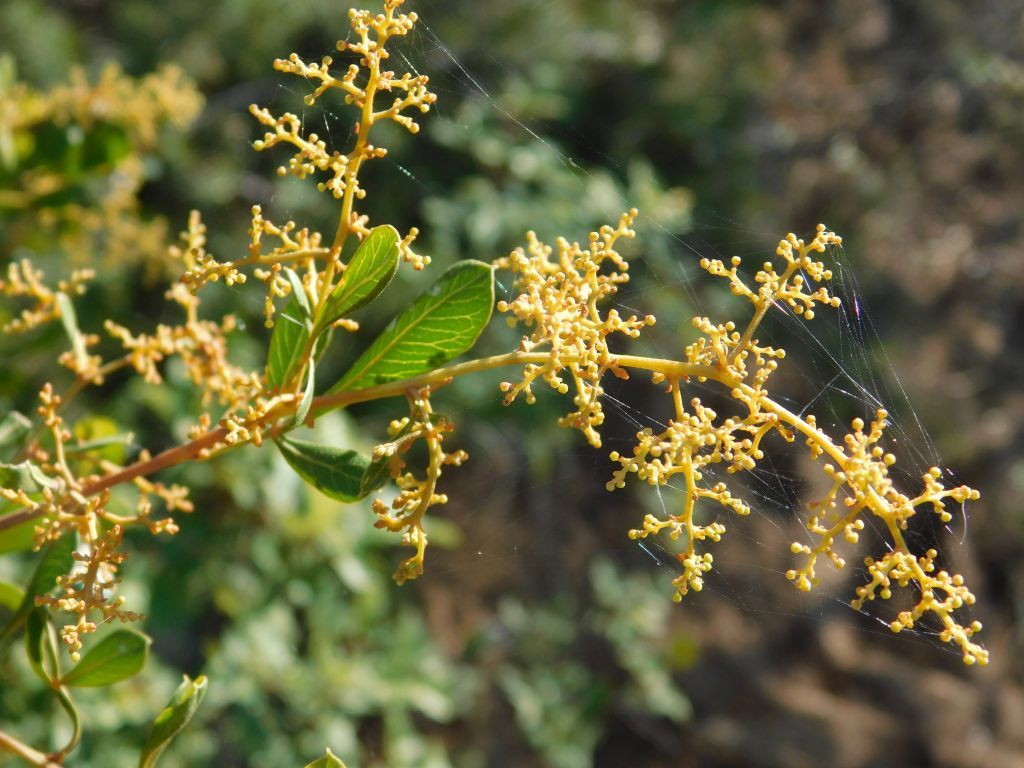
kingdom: Plantae
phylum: Tracheophyta
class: Magnoliopsida
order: Sapindales
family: Anacardiaceae
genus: Searsia
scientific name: Searsia pallens
